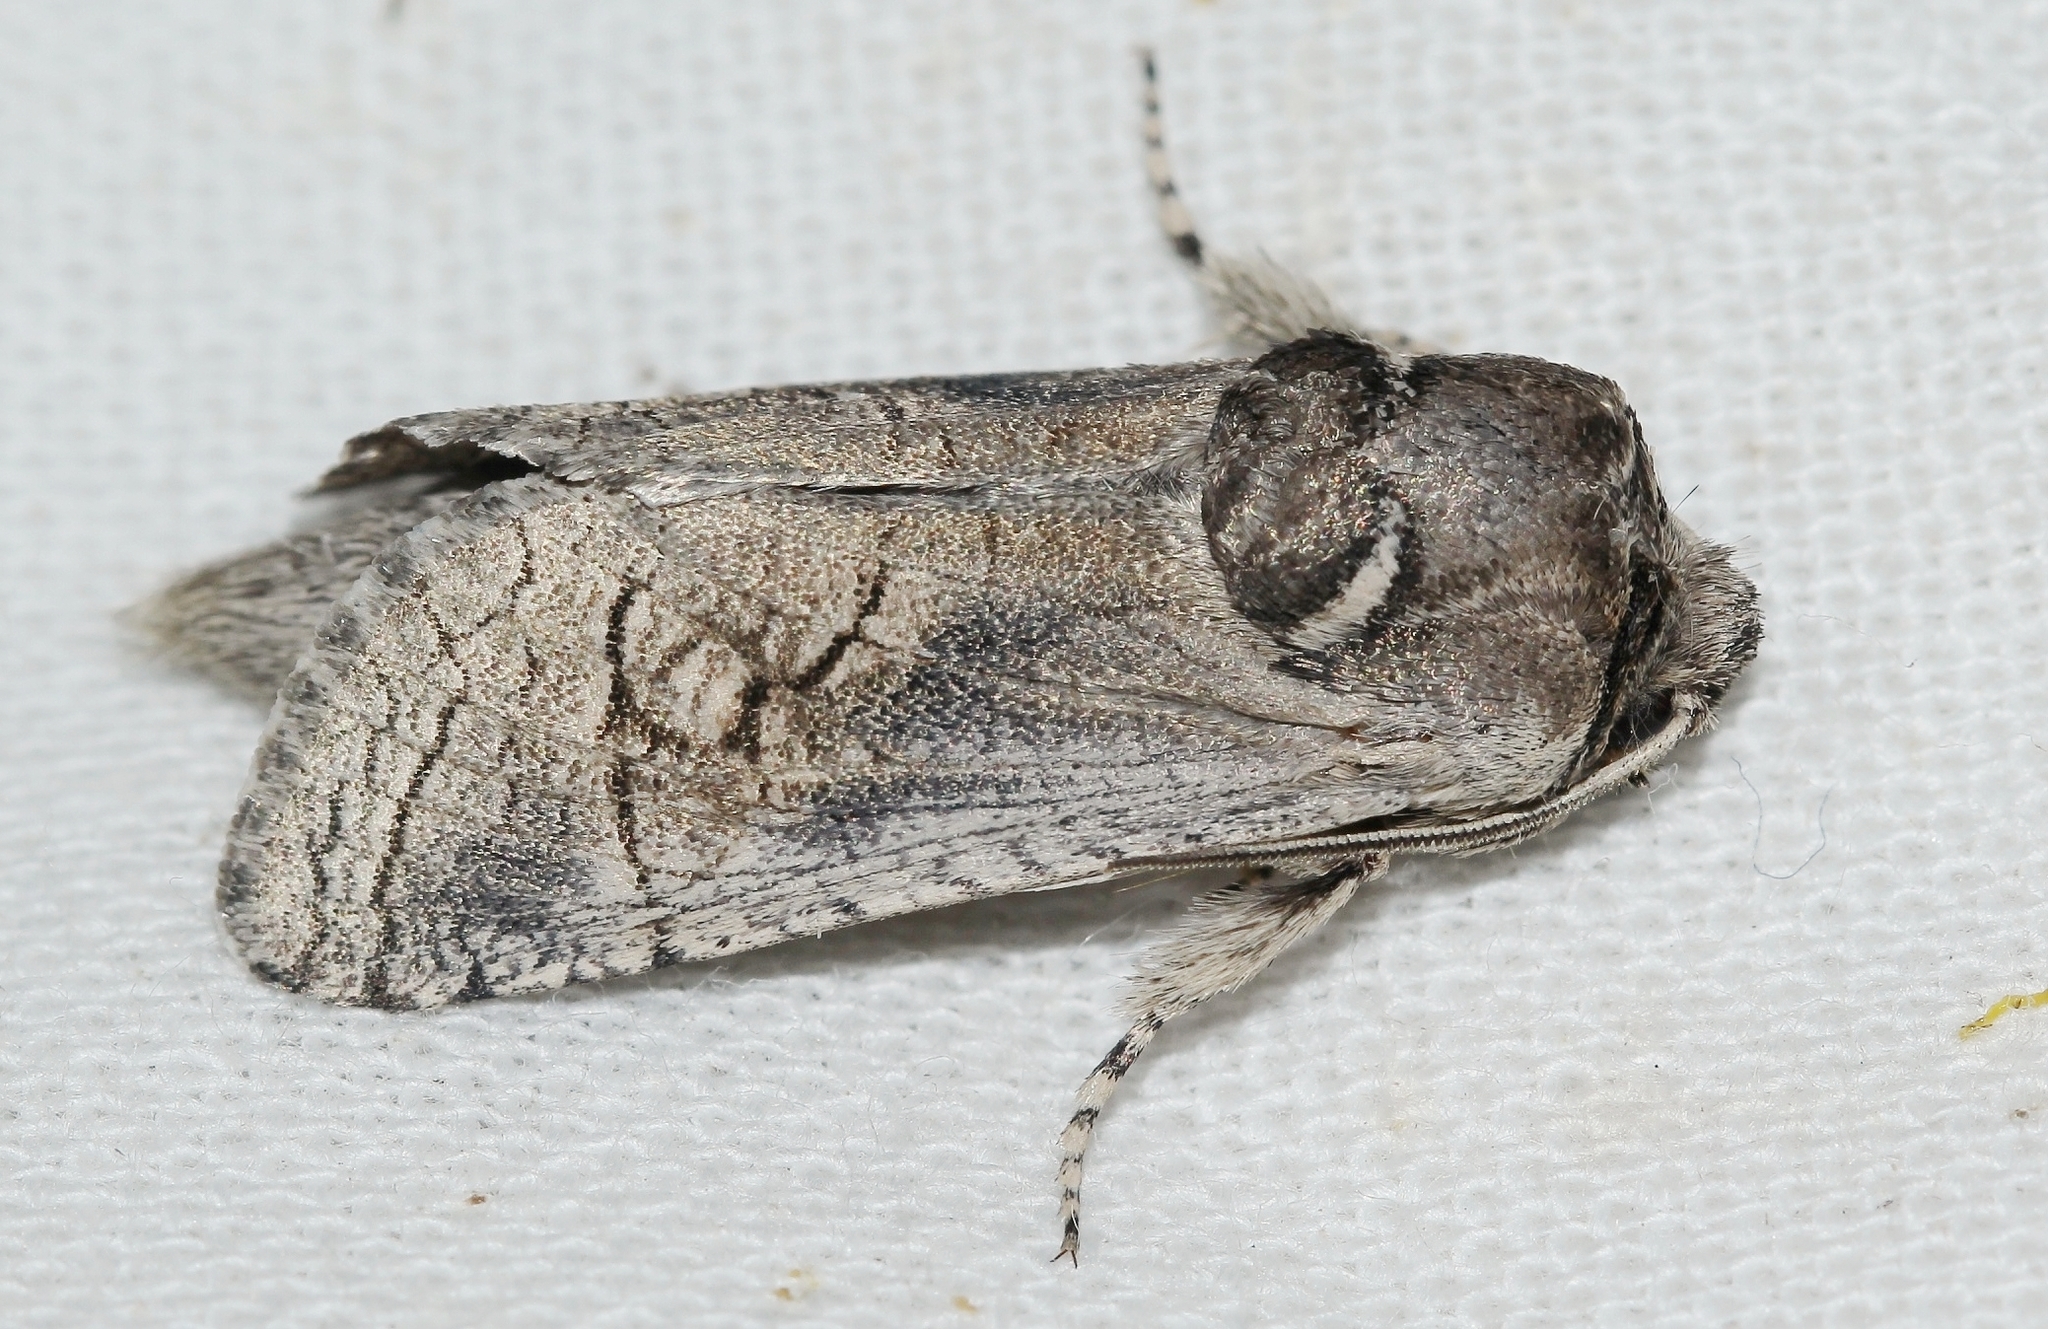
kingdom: Animalia
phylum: Arthropoda
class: Insecta
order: Lepidoptera
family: Cossidae
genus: Cossus
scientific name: Cossus cossus
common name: Goat moth
